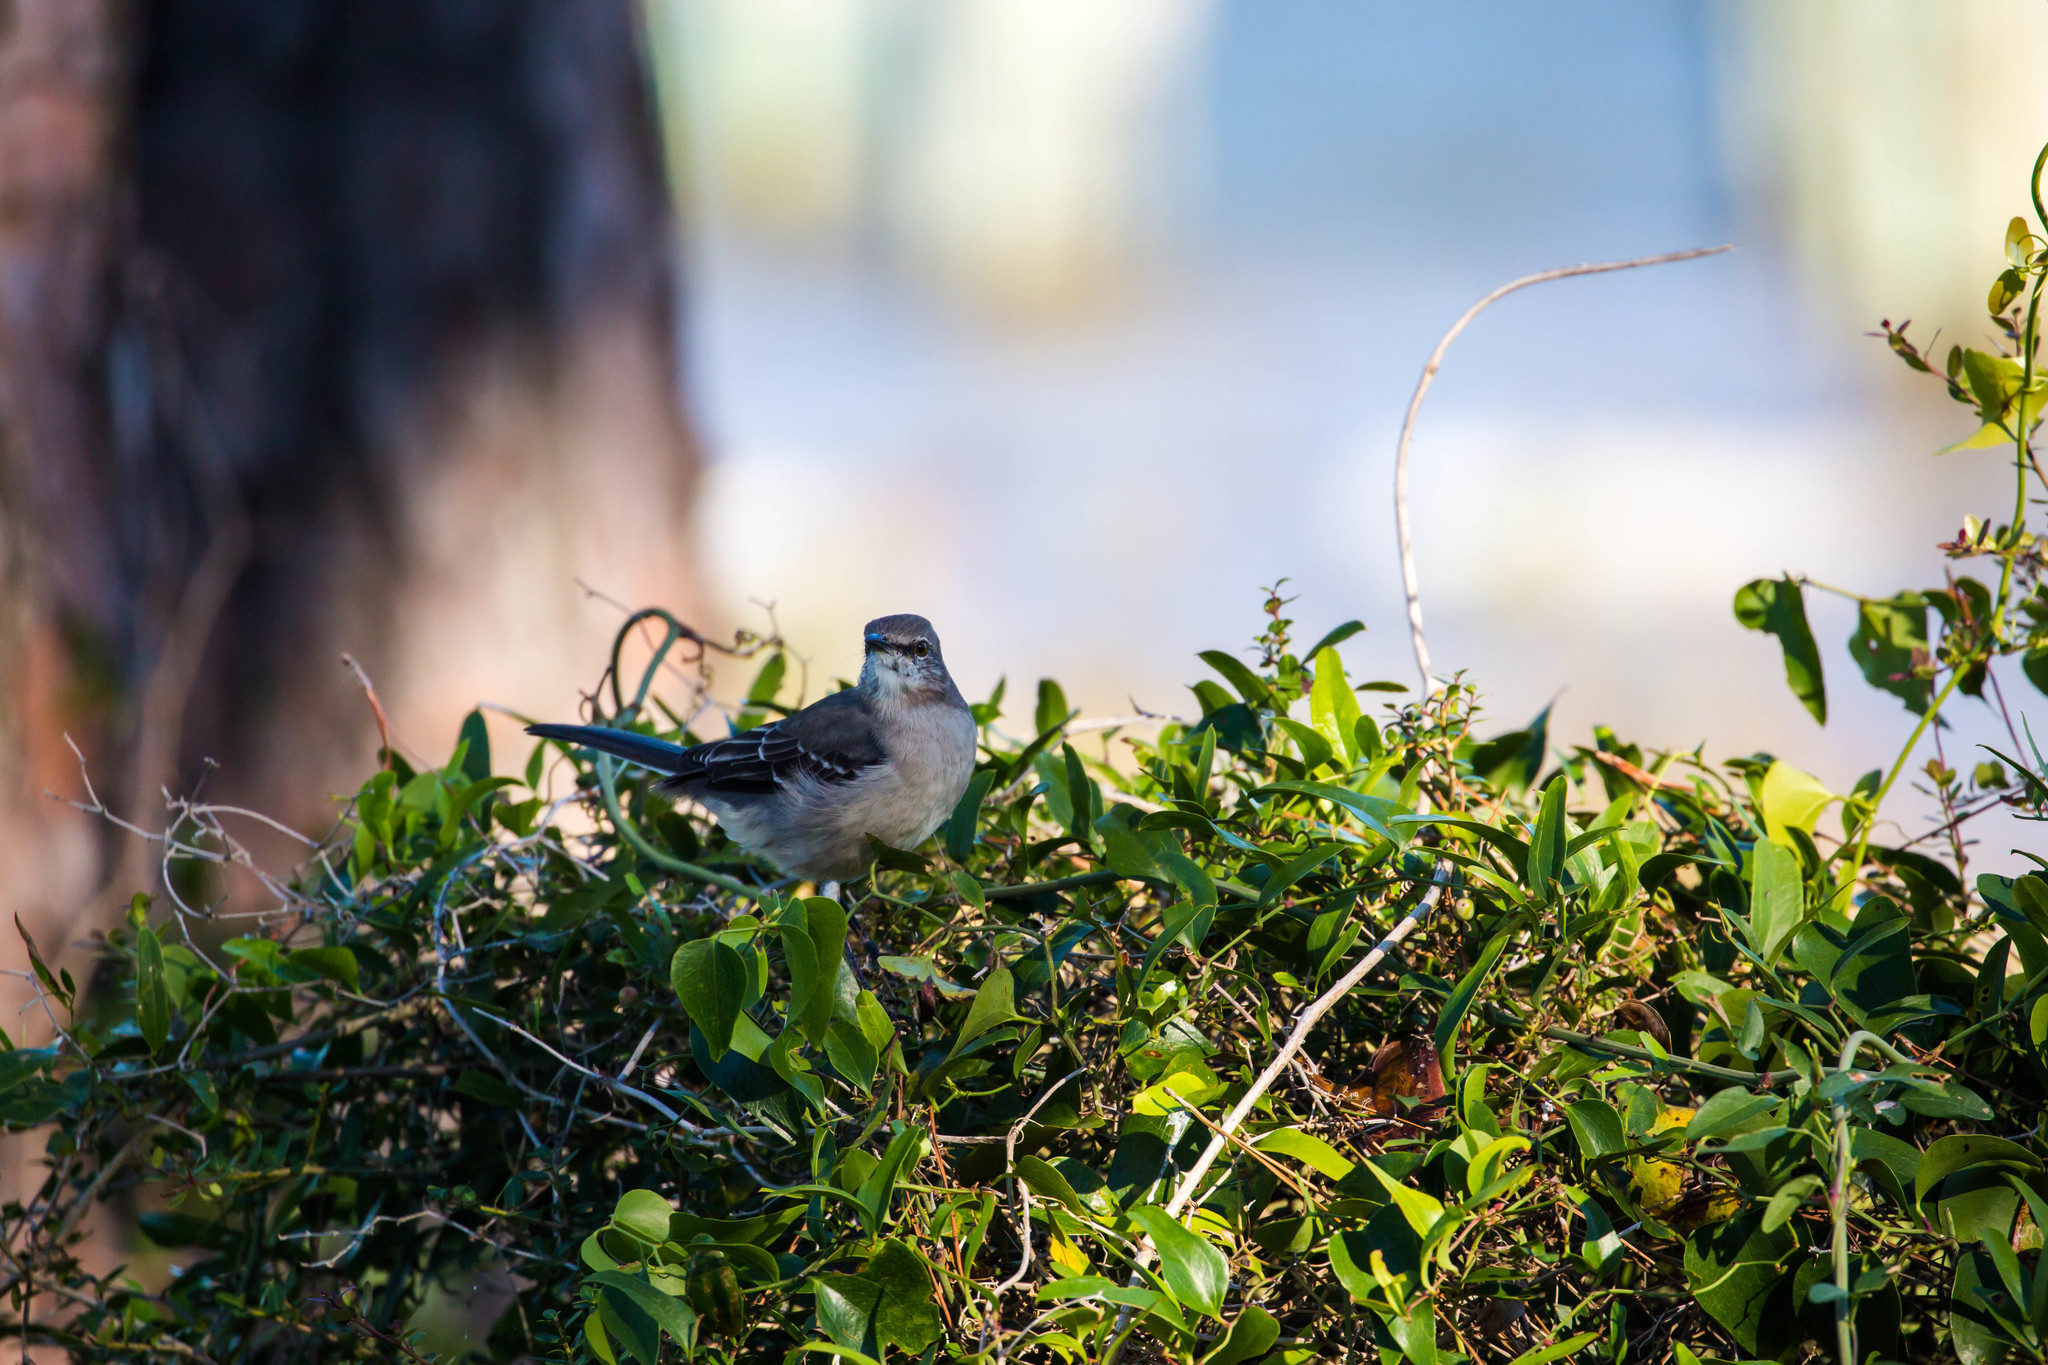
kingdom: Animalia
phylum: Chordata
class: Aves
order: Passeriformes
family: Mimidae
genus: Mimus
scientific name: Mimus polyglottos
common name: Northern mockingbird
